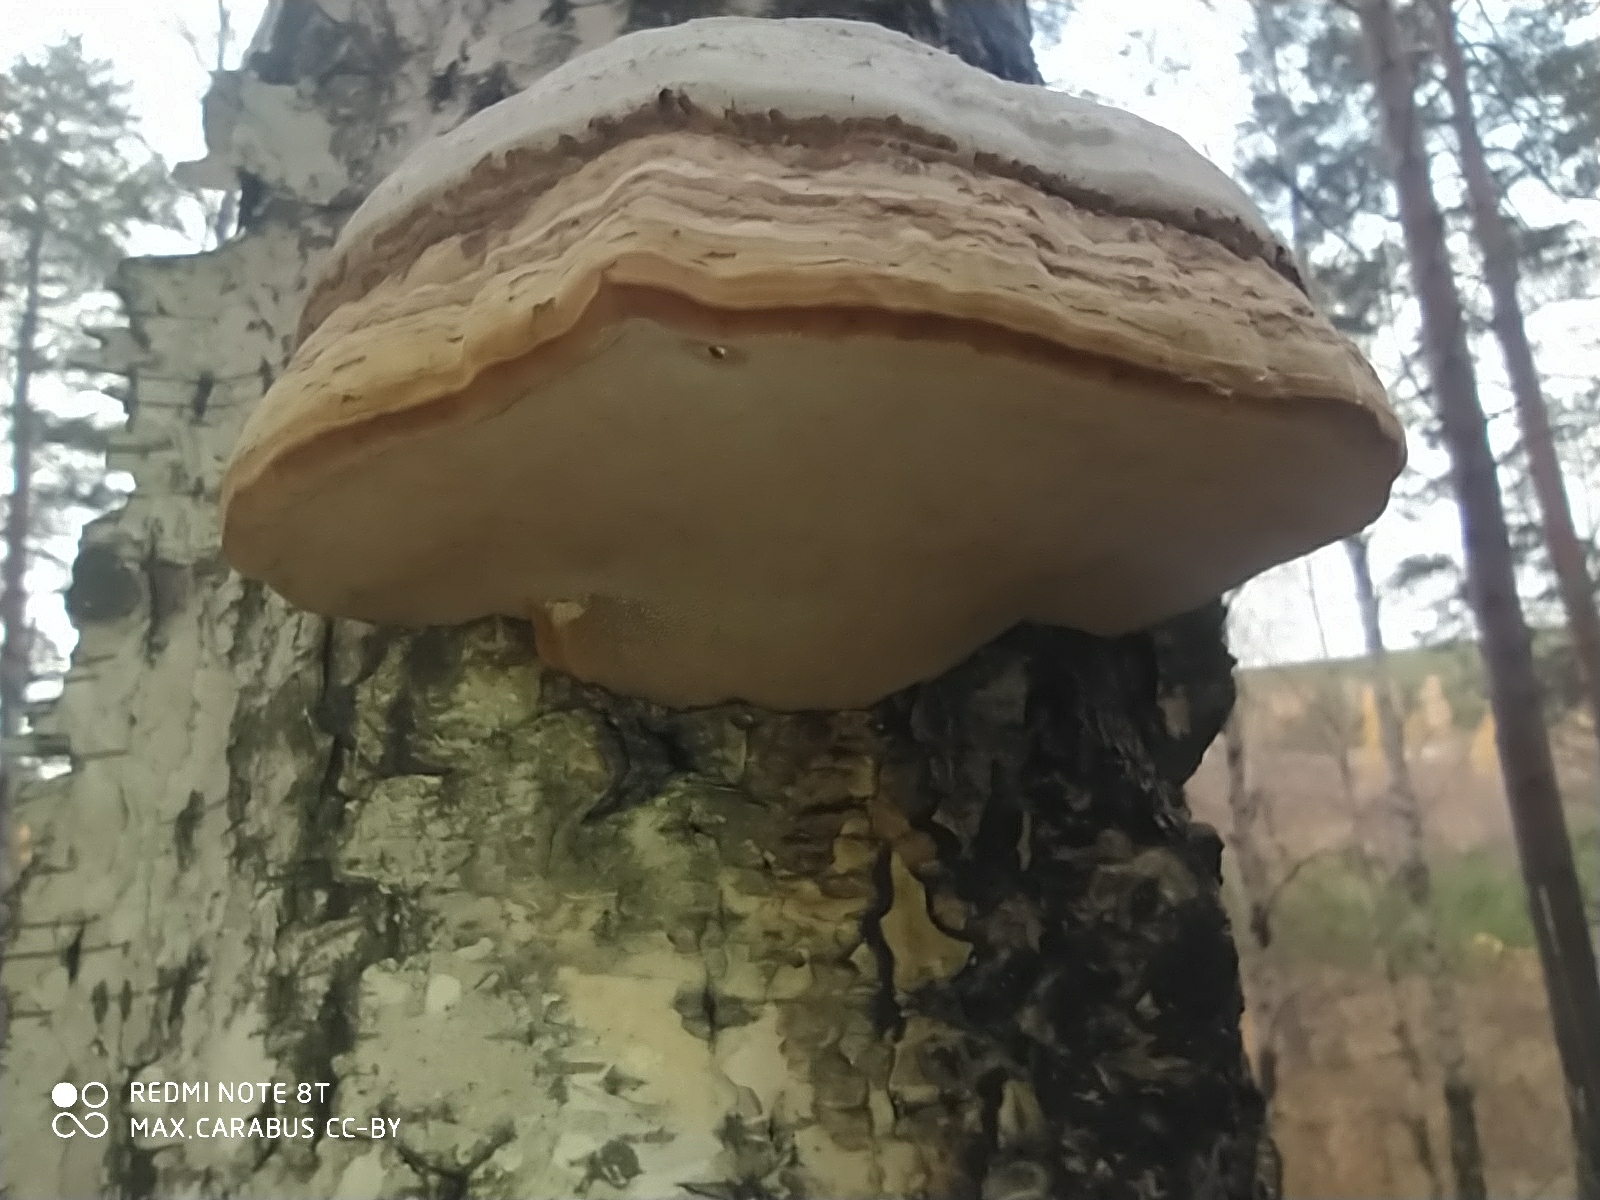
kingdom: Fungi
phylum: Basidiomycota
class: Agaricomycetes
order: Polyporales
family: Polyporaceae
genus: Fomes
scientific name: Fomes fomentarius
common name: Hoof fungus
